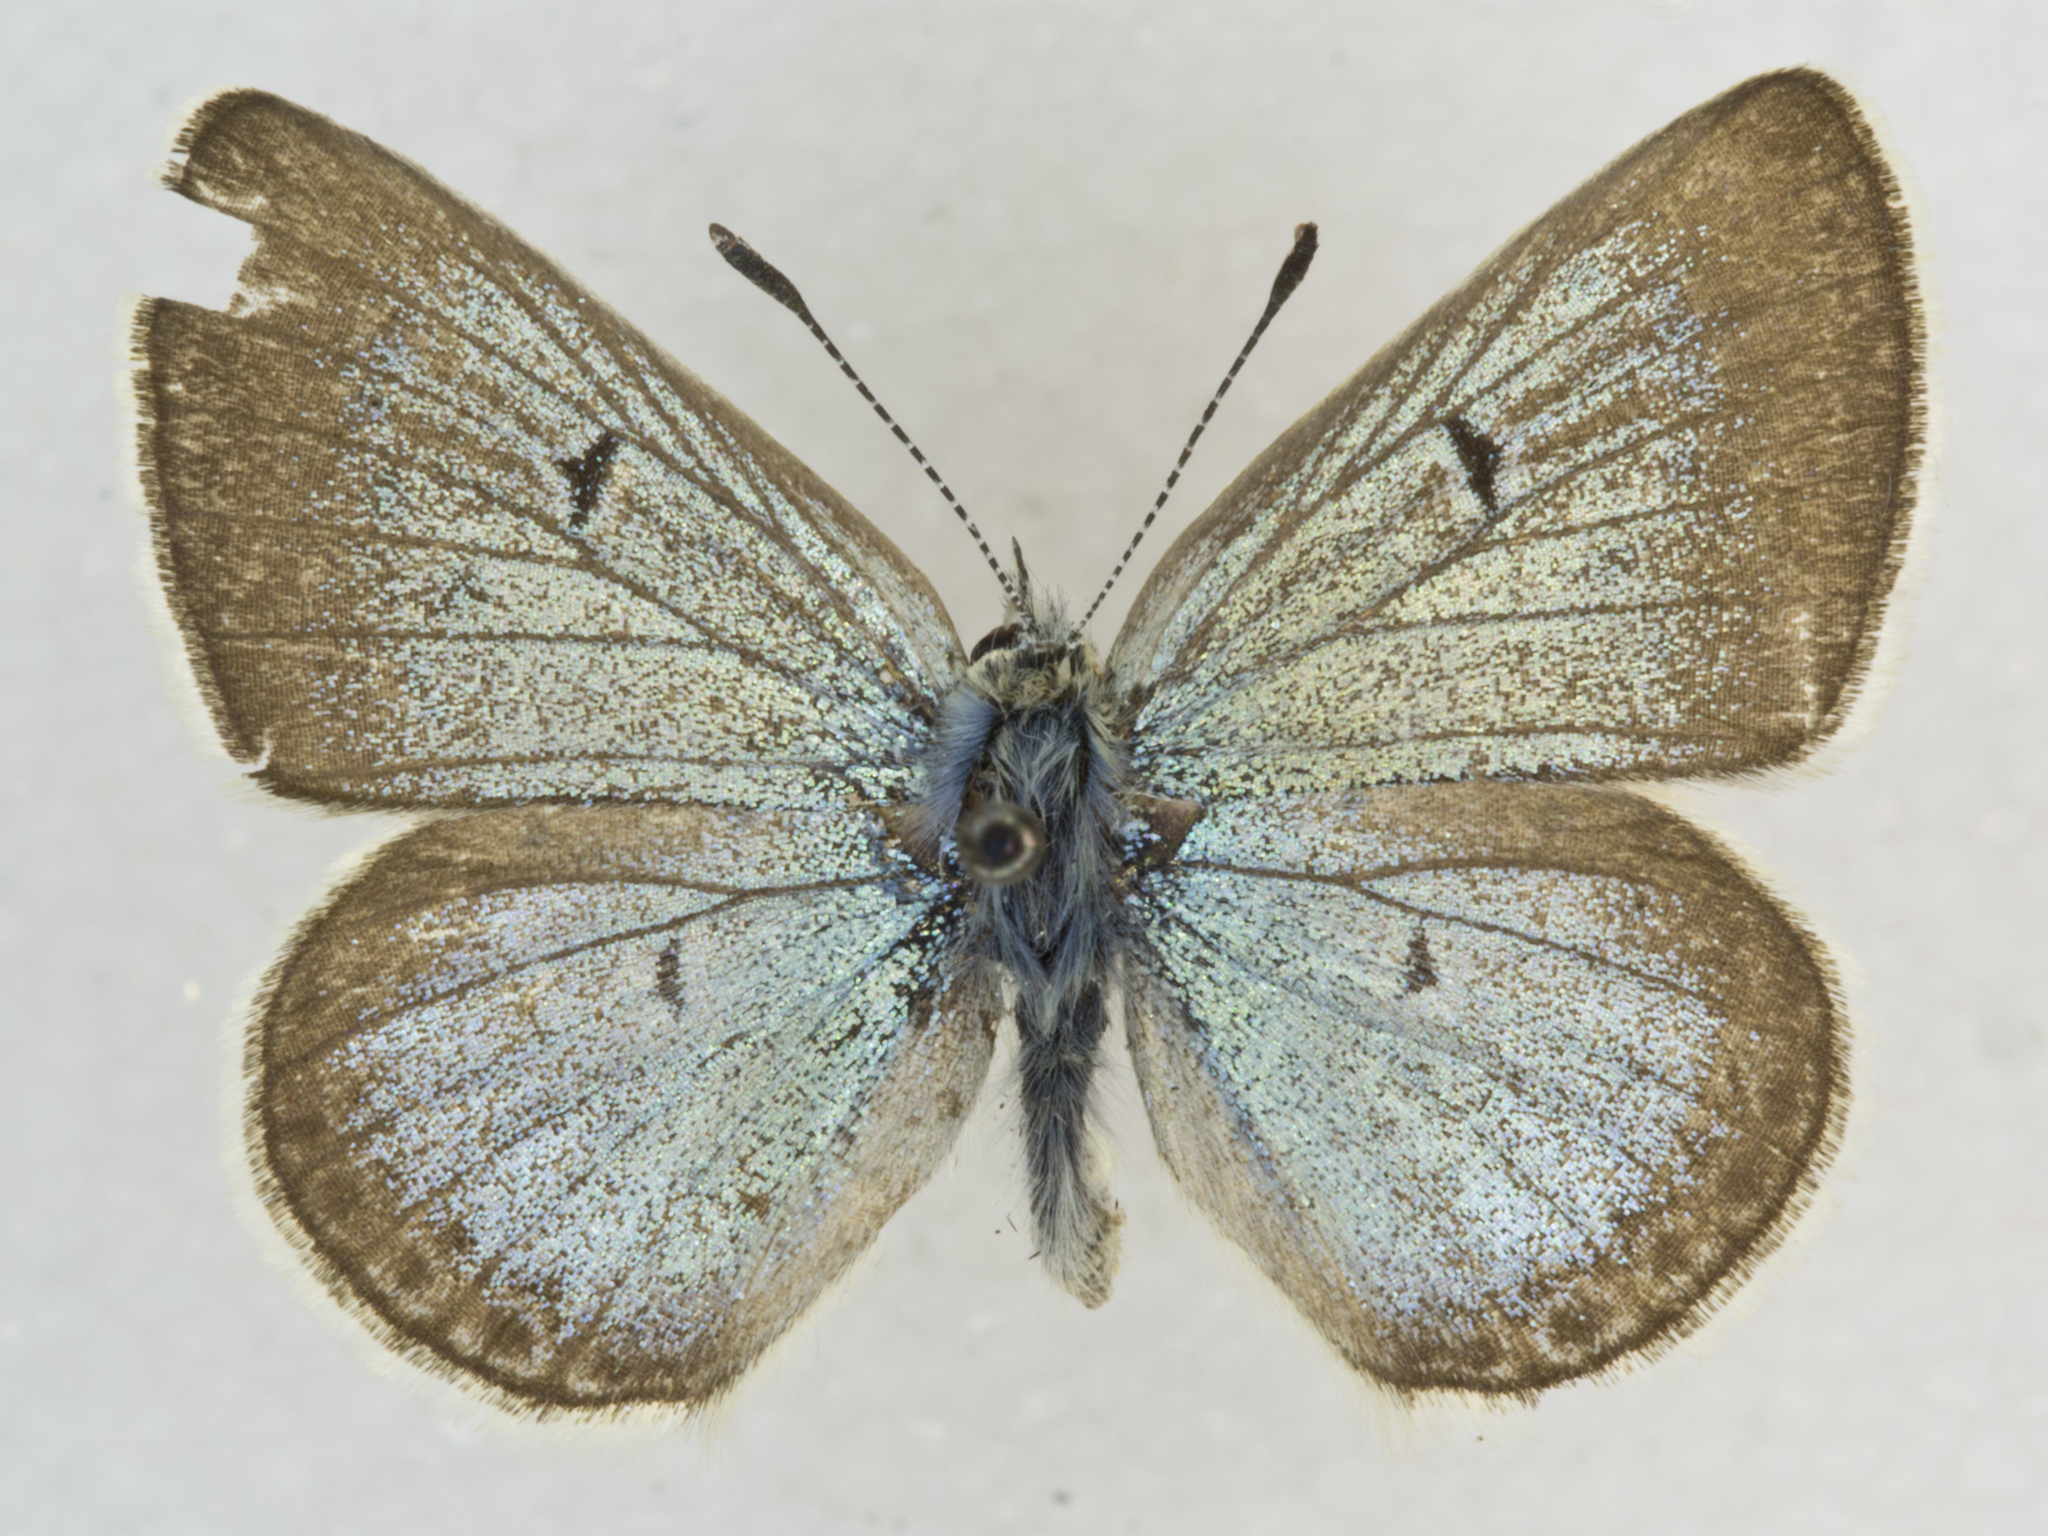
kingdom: Animalia
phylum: Arthropoda
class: Insecta
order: Lepidoptera
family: Lycaenidae
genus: Agriades
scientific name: Agriades glandon
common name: Glandon blue
